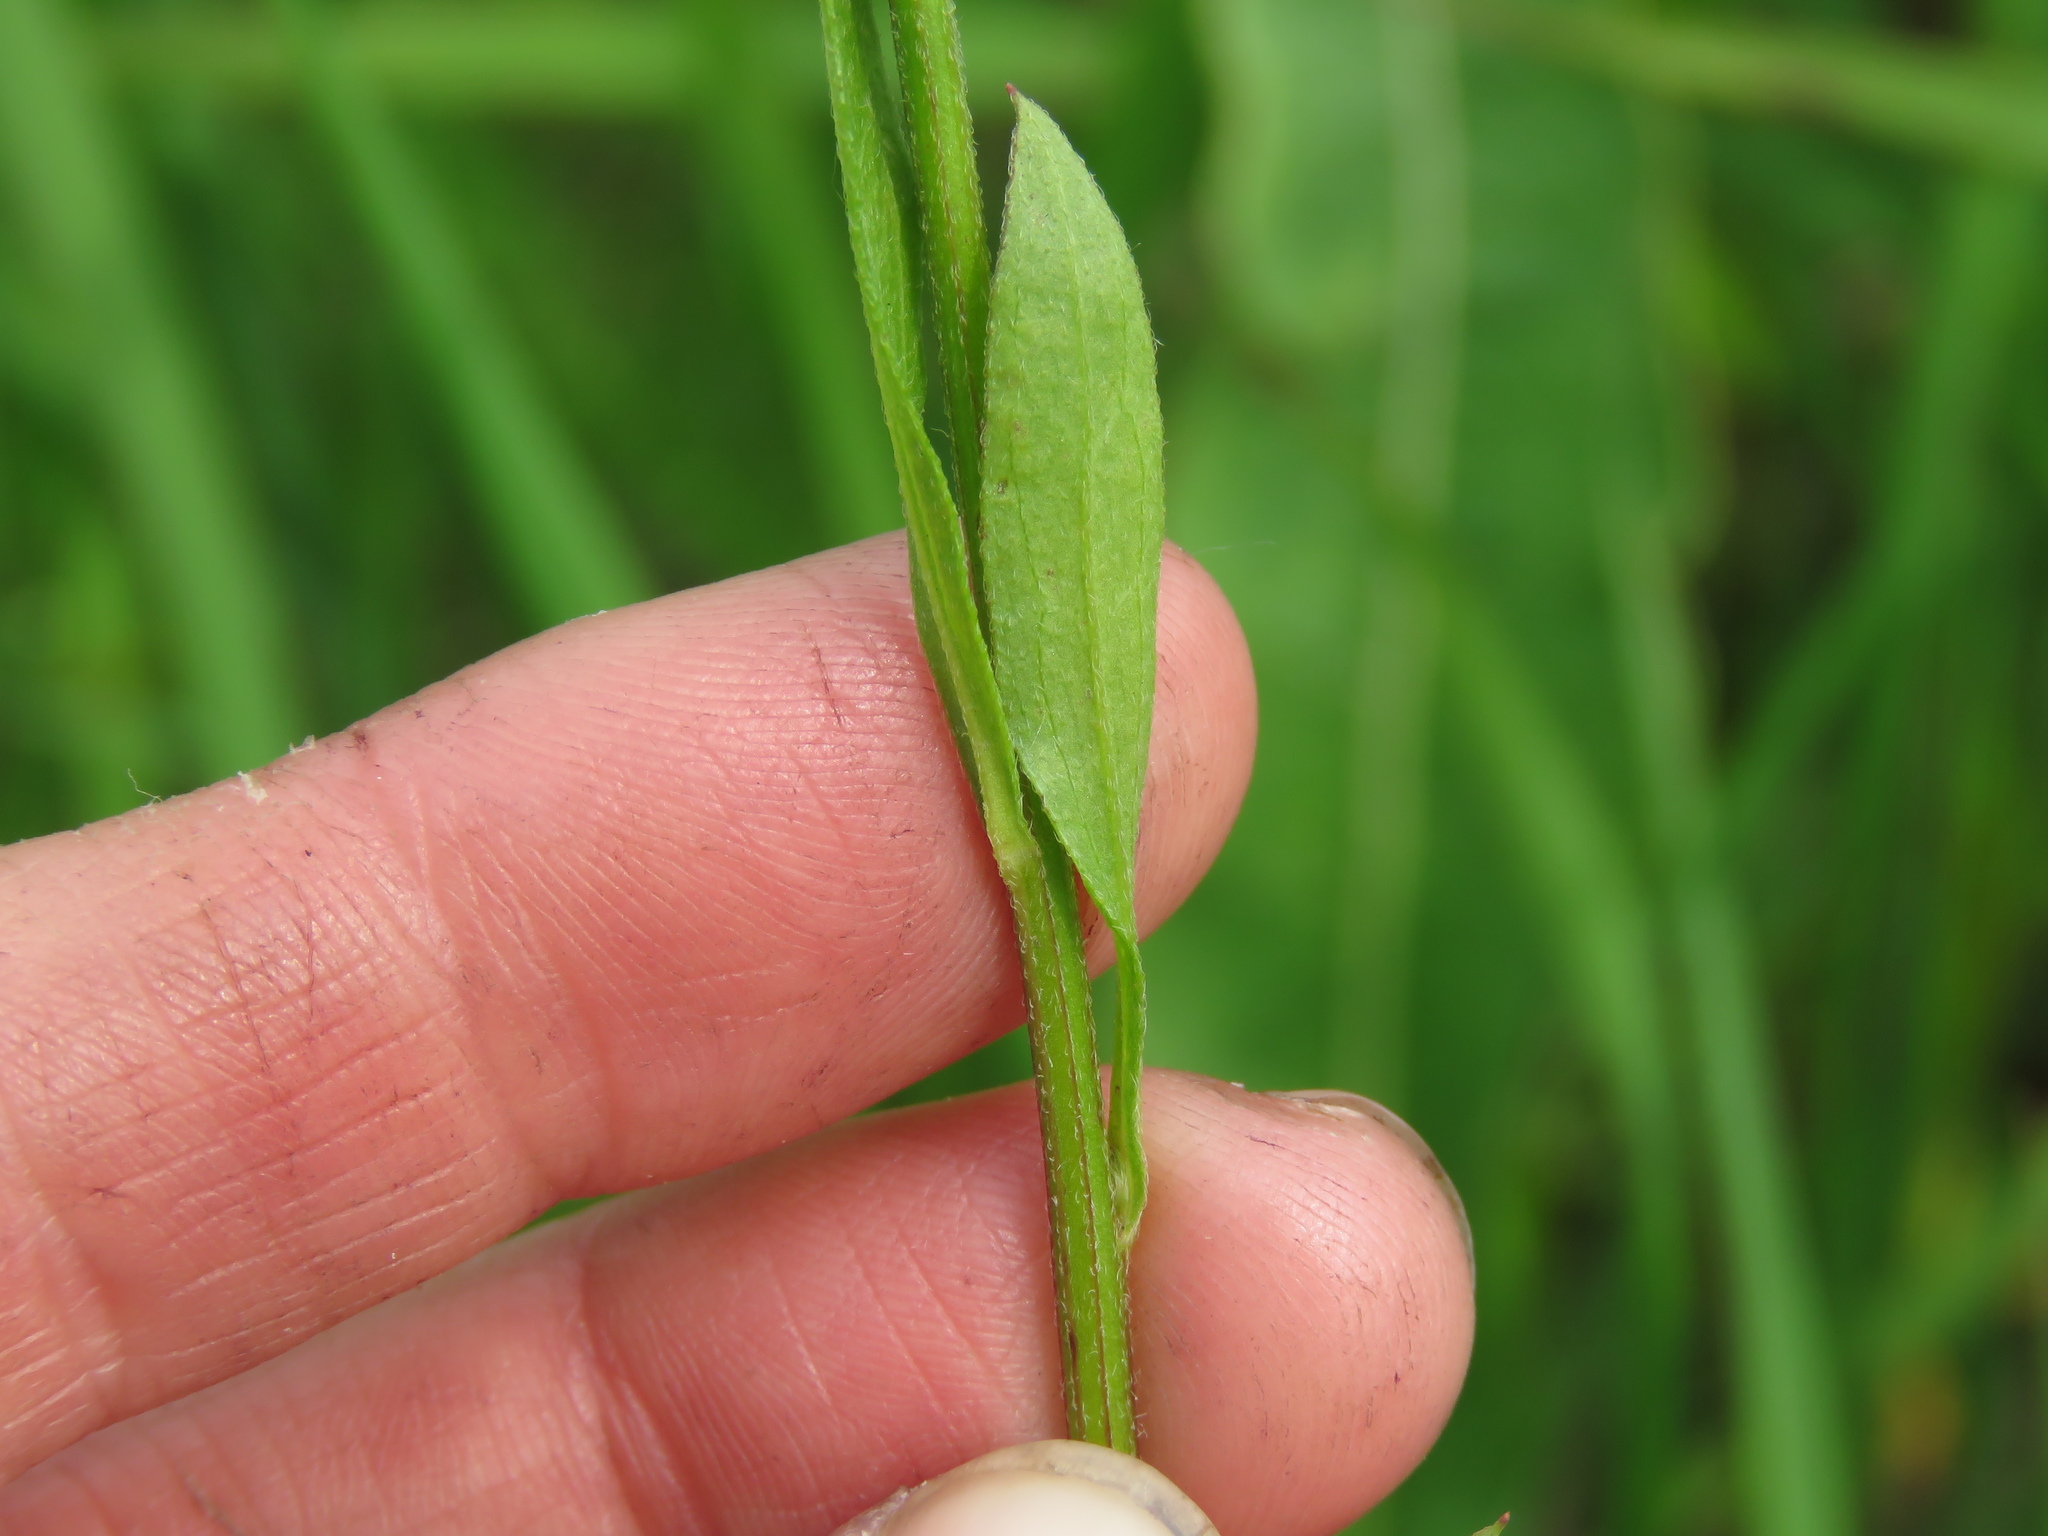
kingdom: Plantae
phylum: Tracheophyta
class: Magnoliopsida
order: Asterales
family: Asteraceae
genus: Erigeron
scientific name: Erigeron strigosus
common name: Common eastern fleabane
